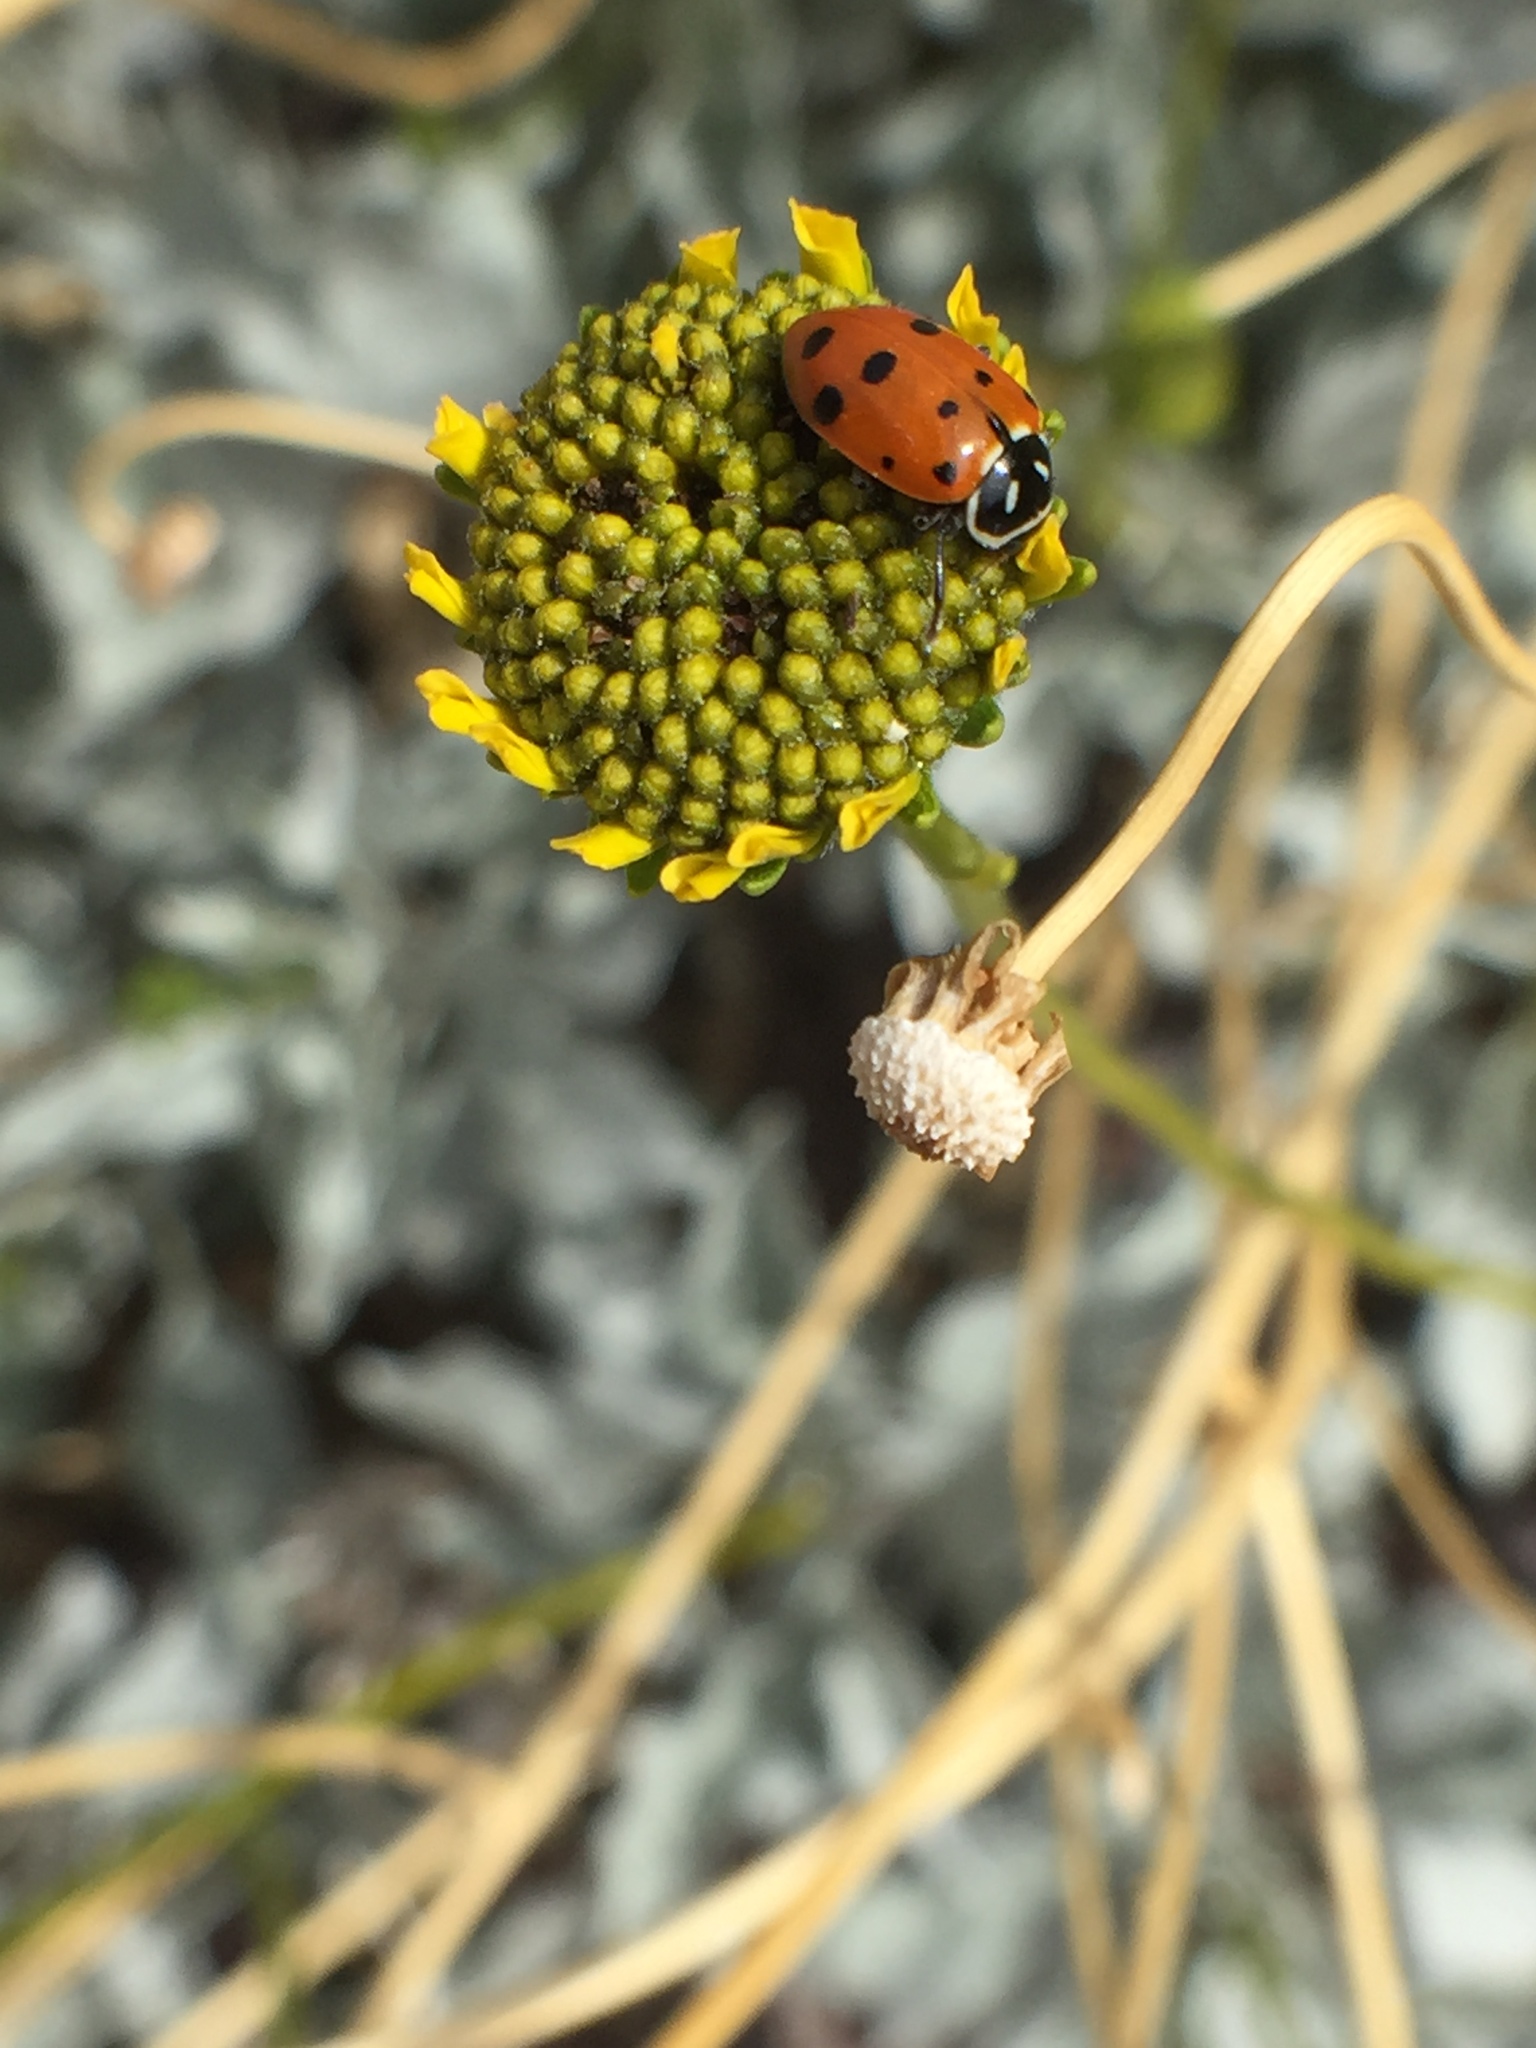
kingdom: Animalia
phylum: Arthropoda
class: Insecta
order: Coleoptera
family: Coccinellidae
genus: Hippodamia
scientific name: Hippodamia convergens
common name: Convergent lady beetle
